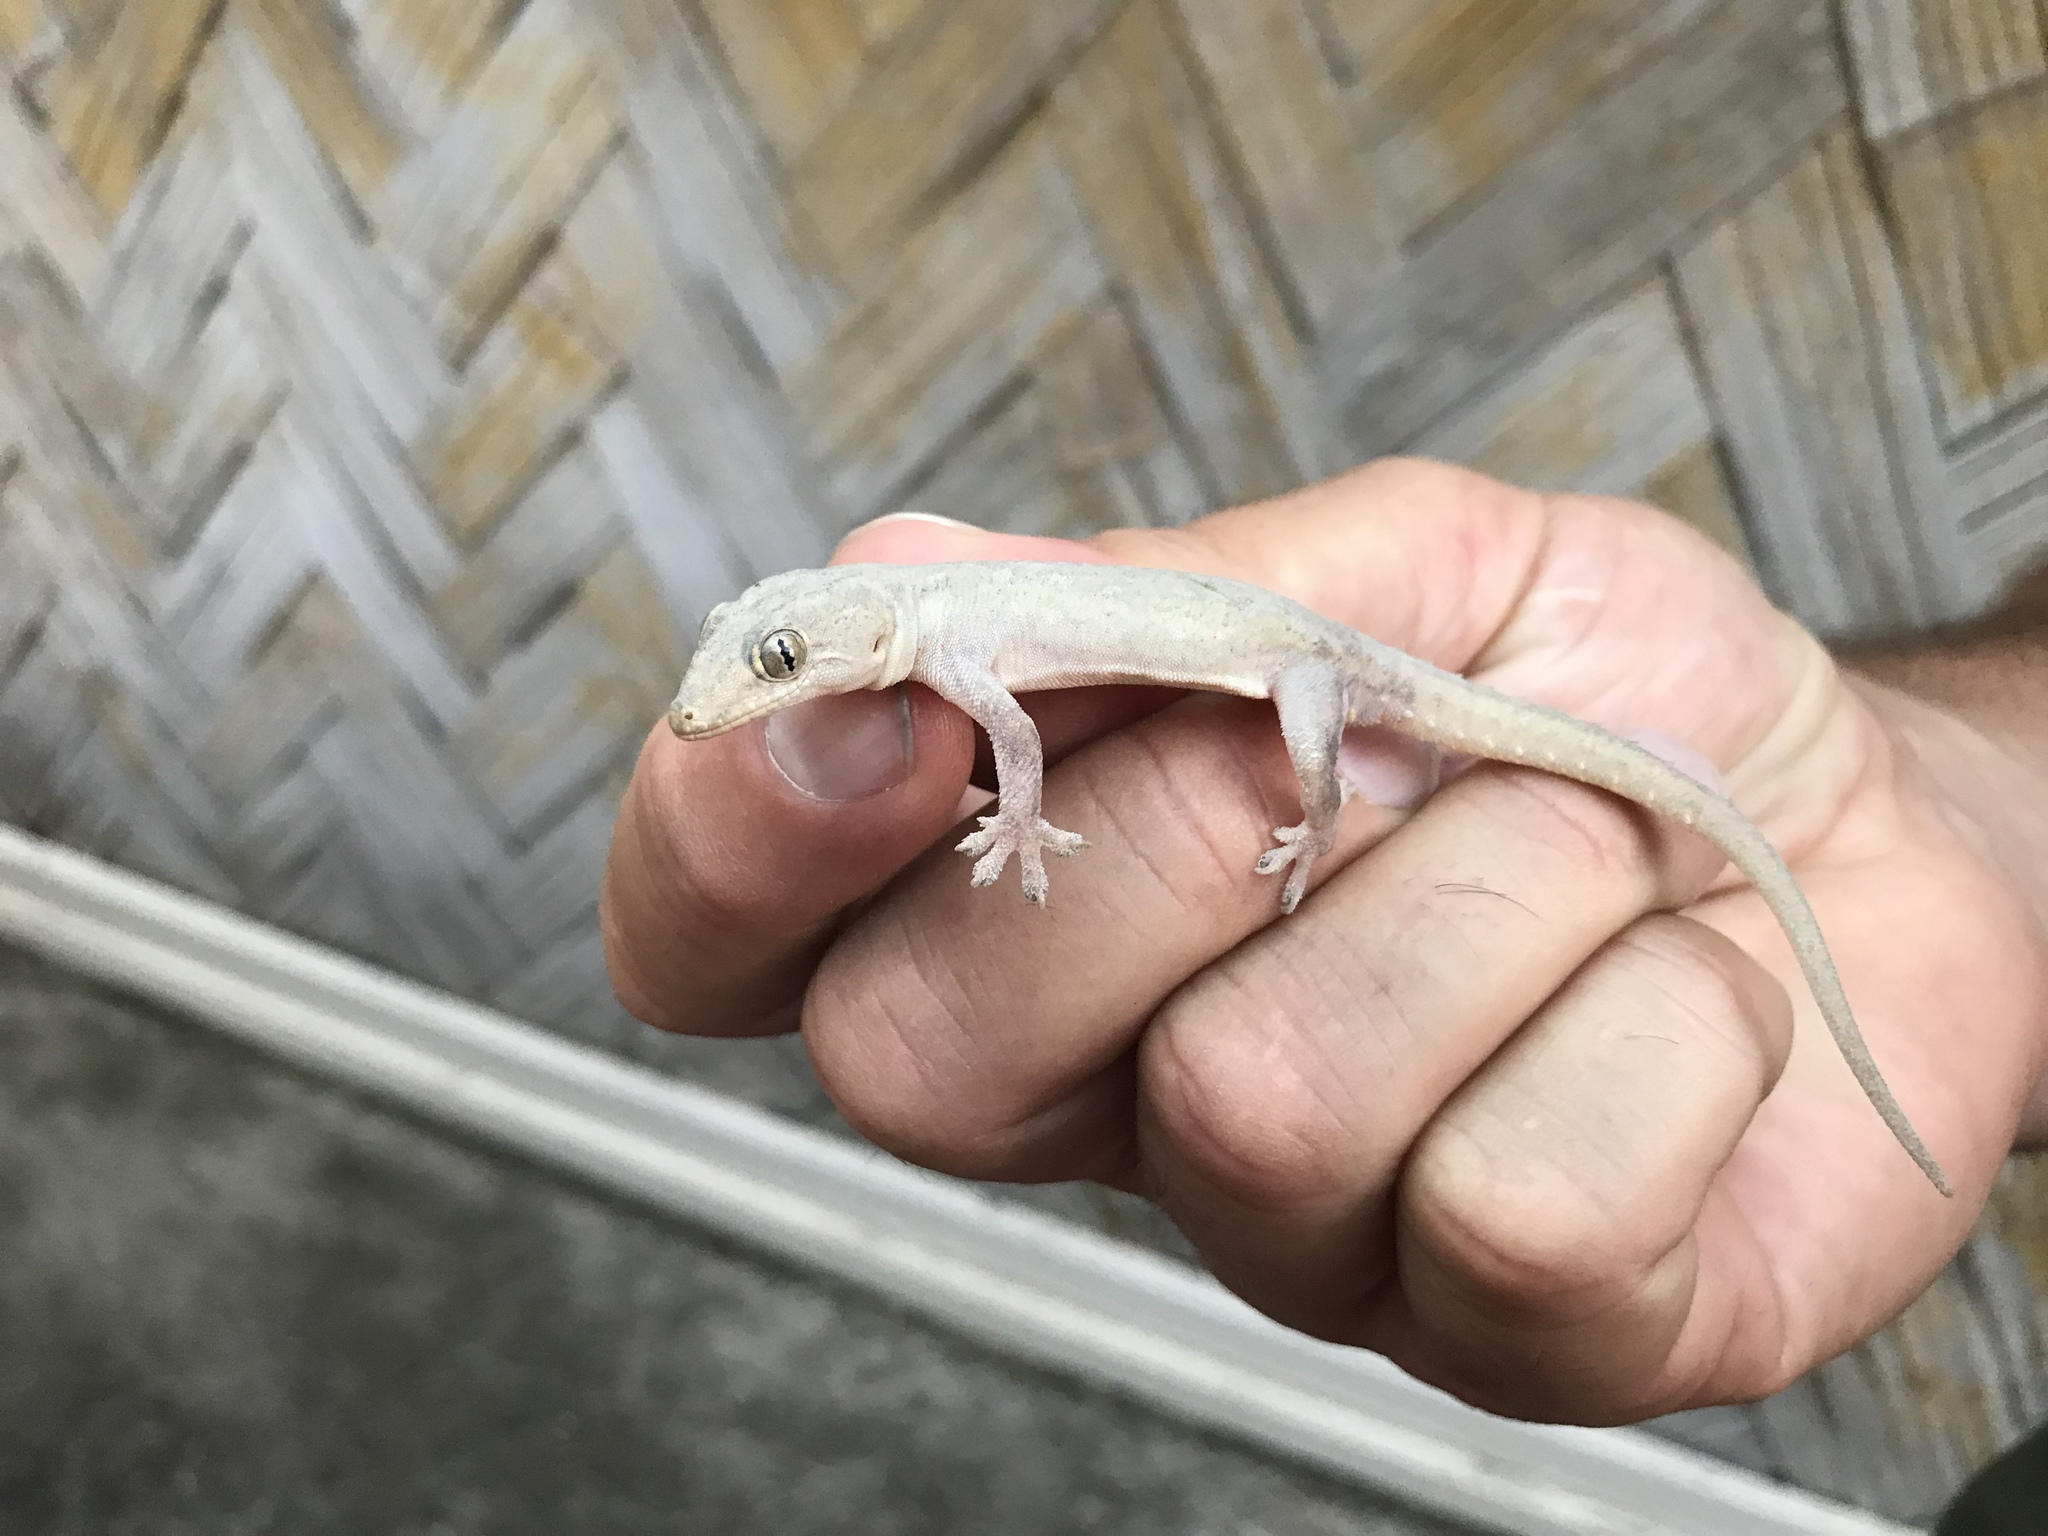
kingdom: Animalia
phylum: Chordata
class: Squamata
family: Gekkonidae
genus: Hemidactylus
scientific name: Hemidactylus frenatus
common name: Common house gecko
